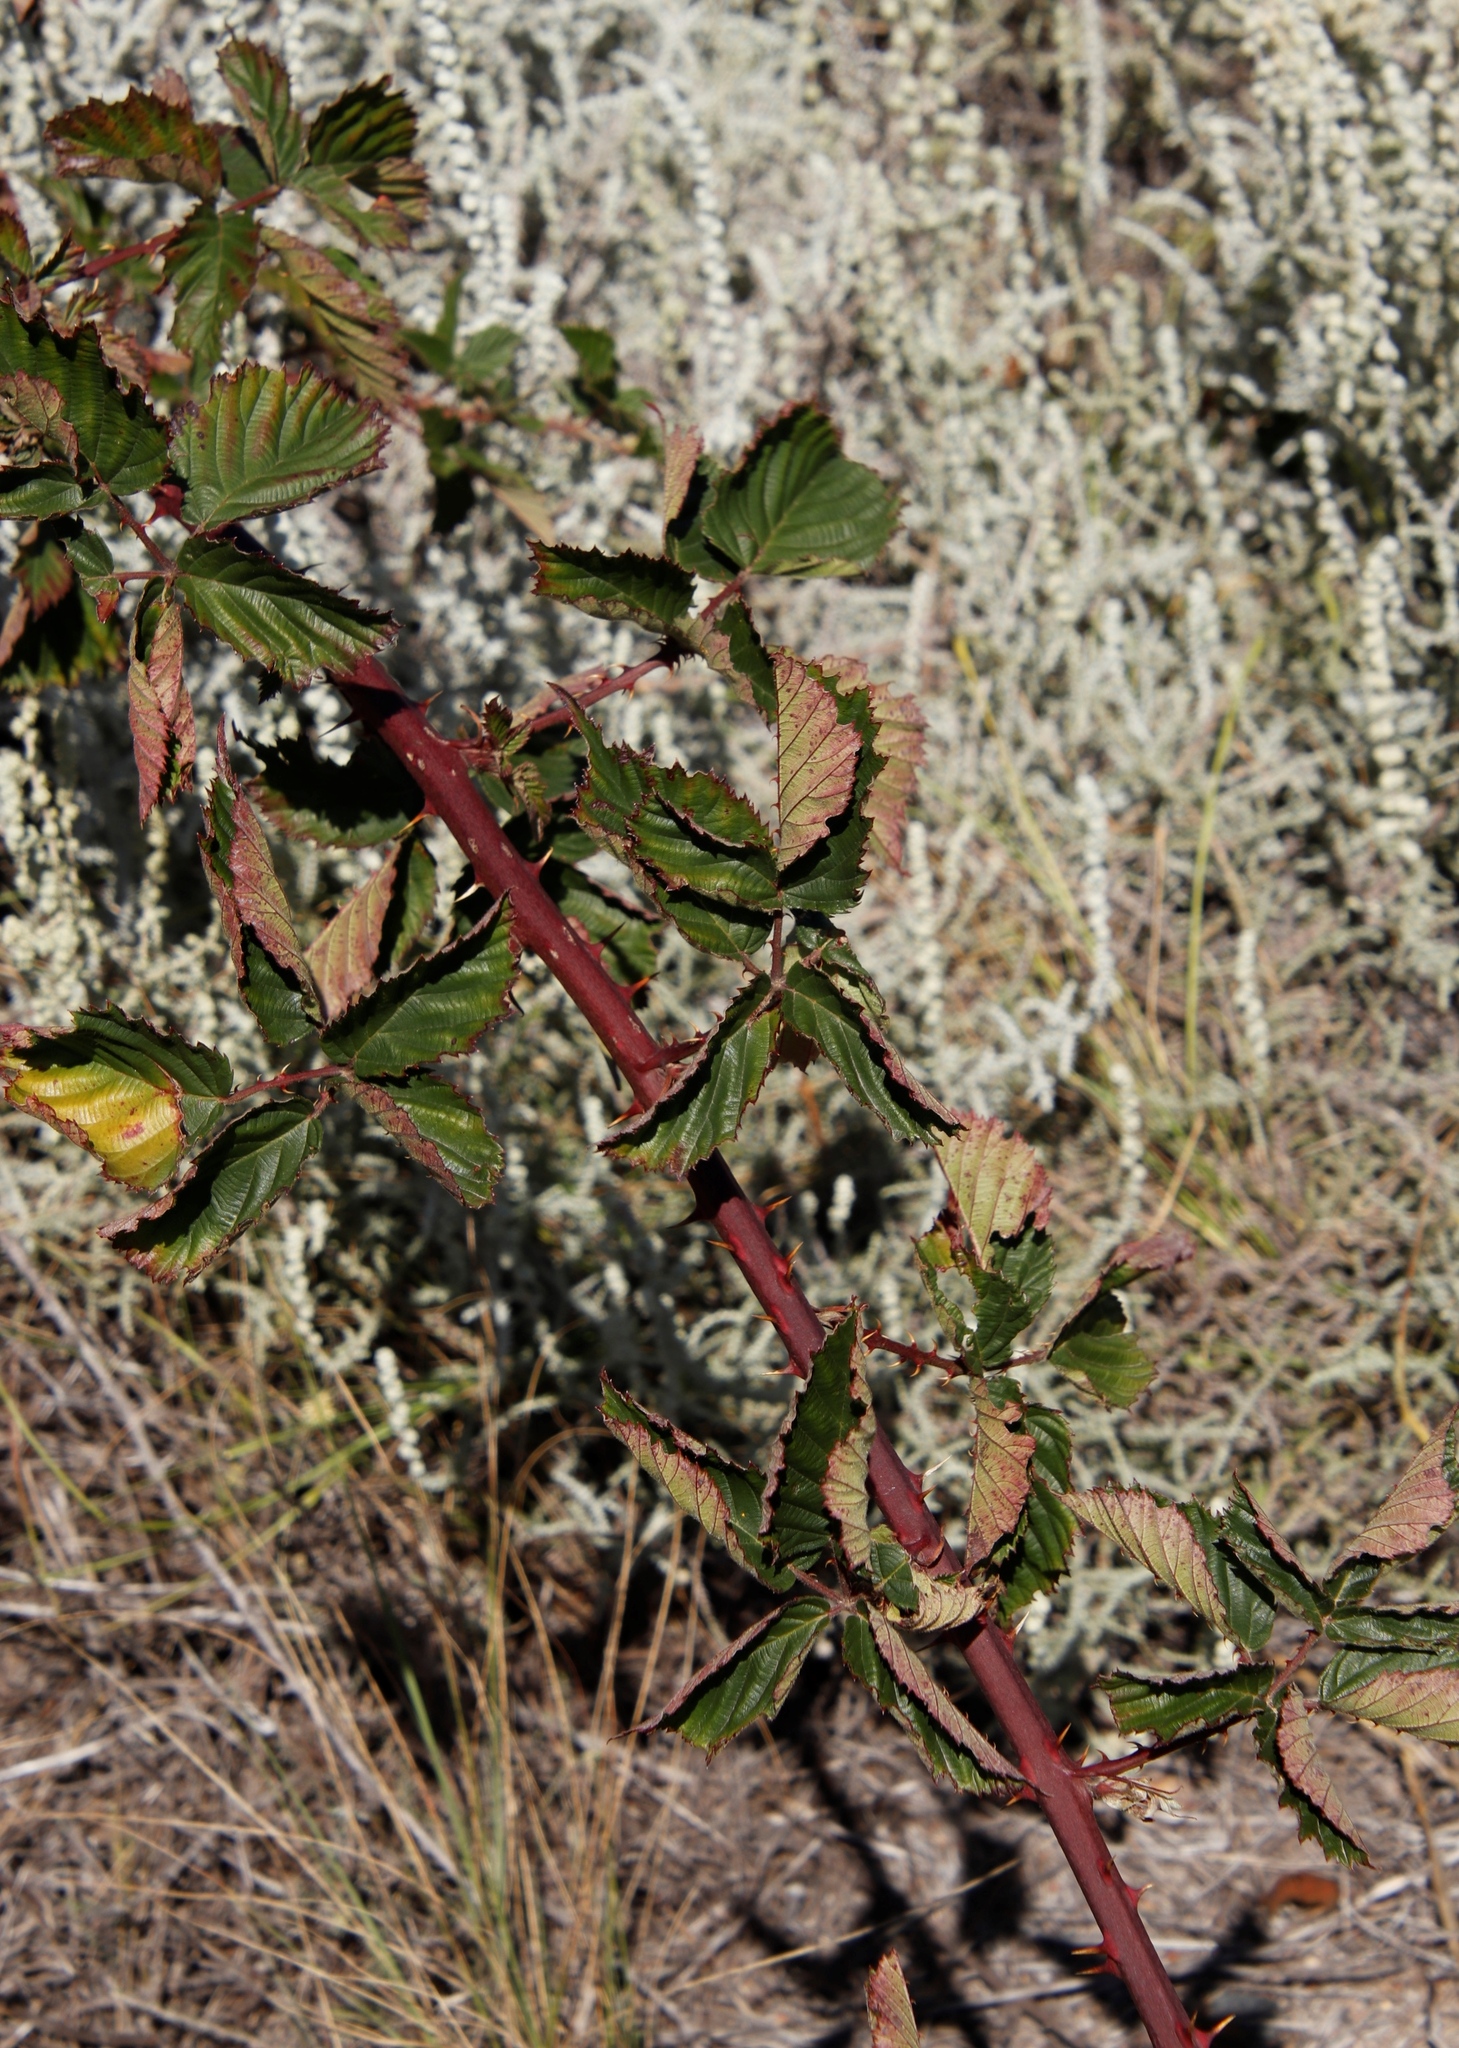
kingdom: Plantae
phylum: Tracheophyta
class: Magnoliopsida
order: Rosales
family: Rosaceae
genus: Rubus
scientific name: Rubus
